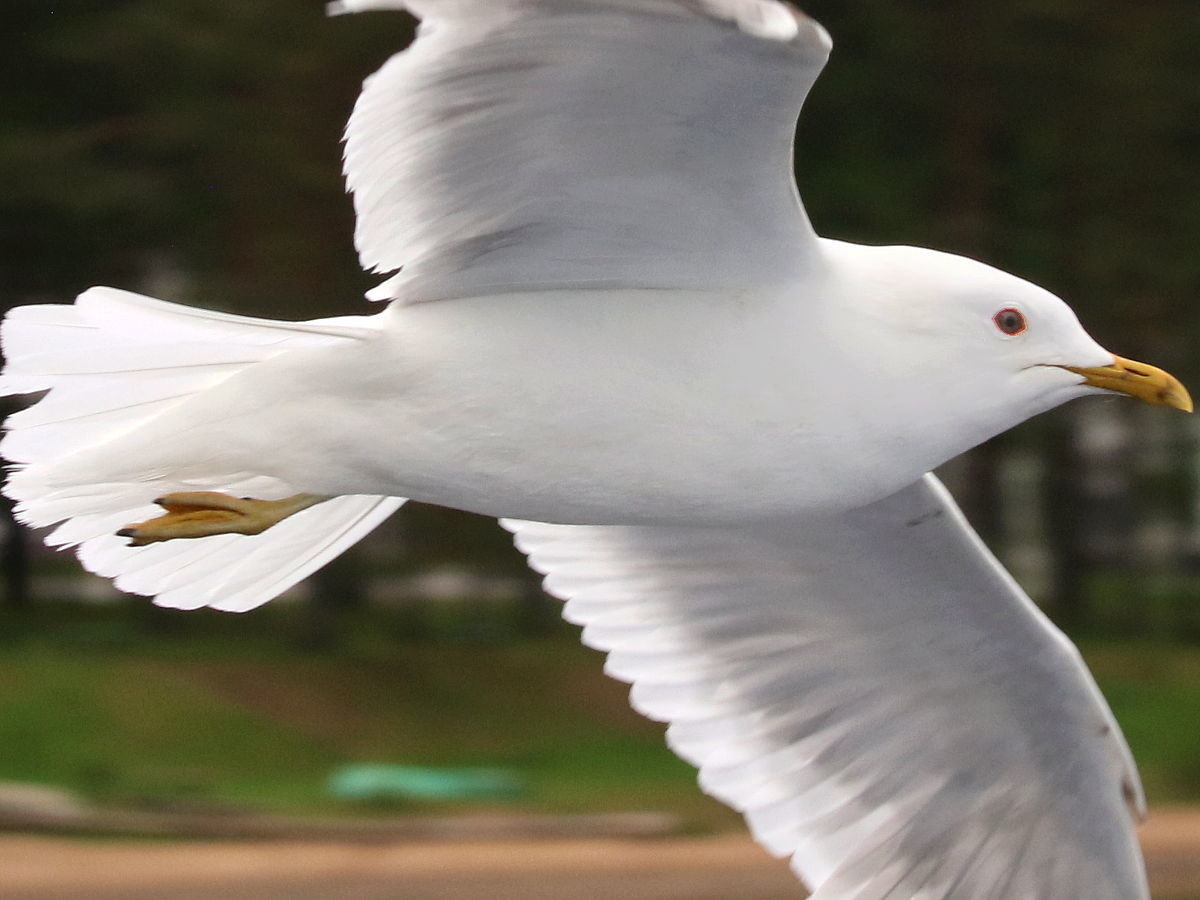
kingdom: Animalia
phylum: Chordata
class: Aves
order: Charadriiformes
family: Laridae
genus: Larus
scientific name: Larus canus
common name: Mew gull
